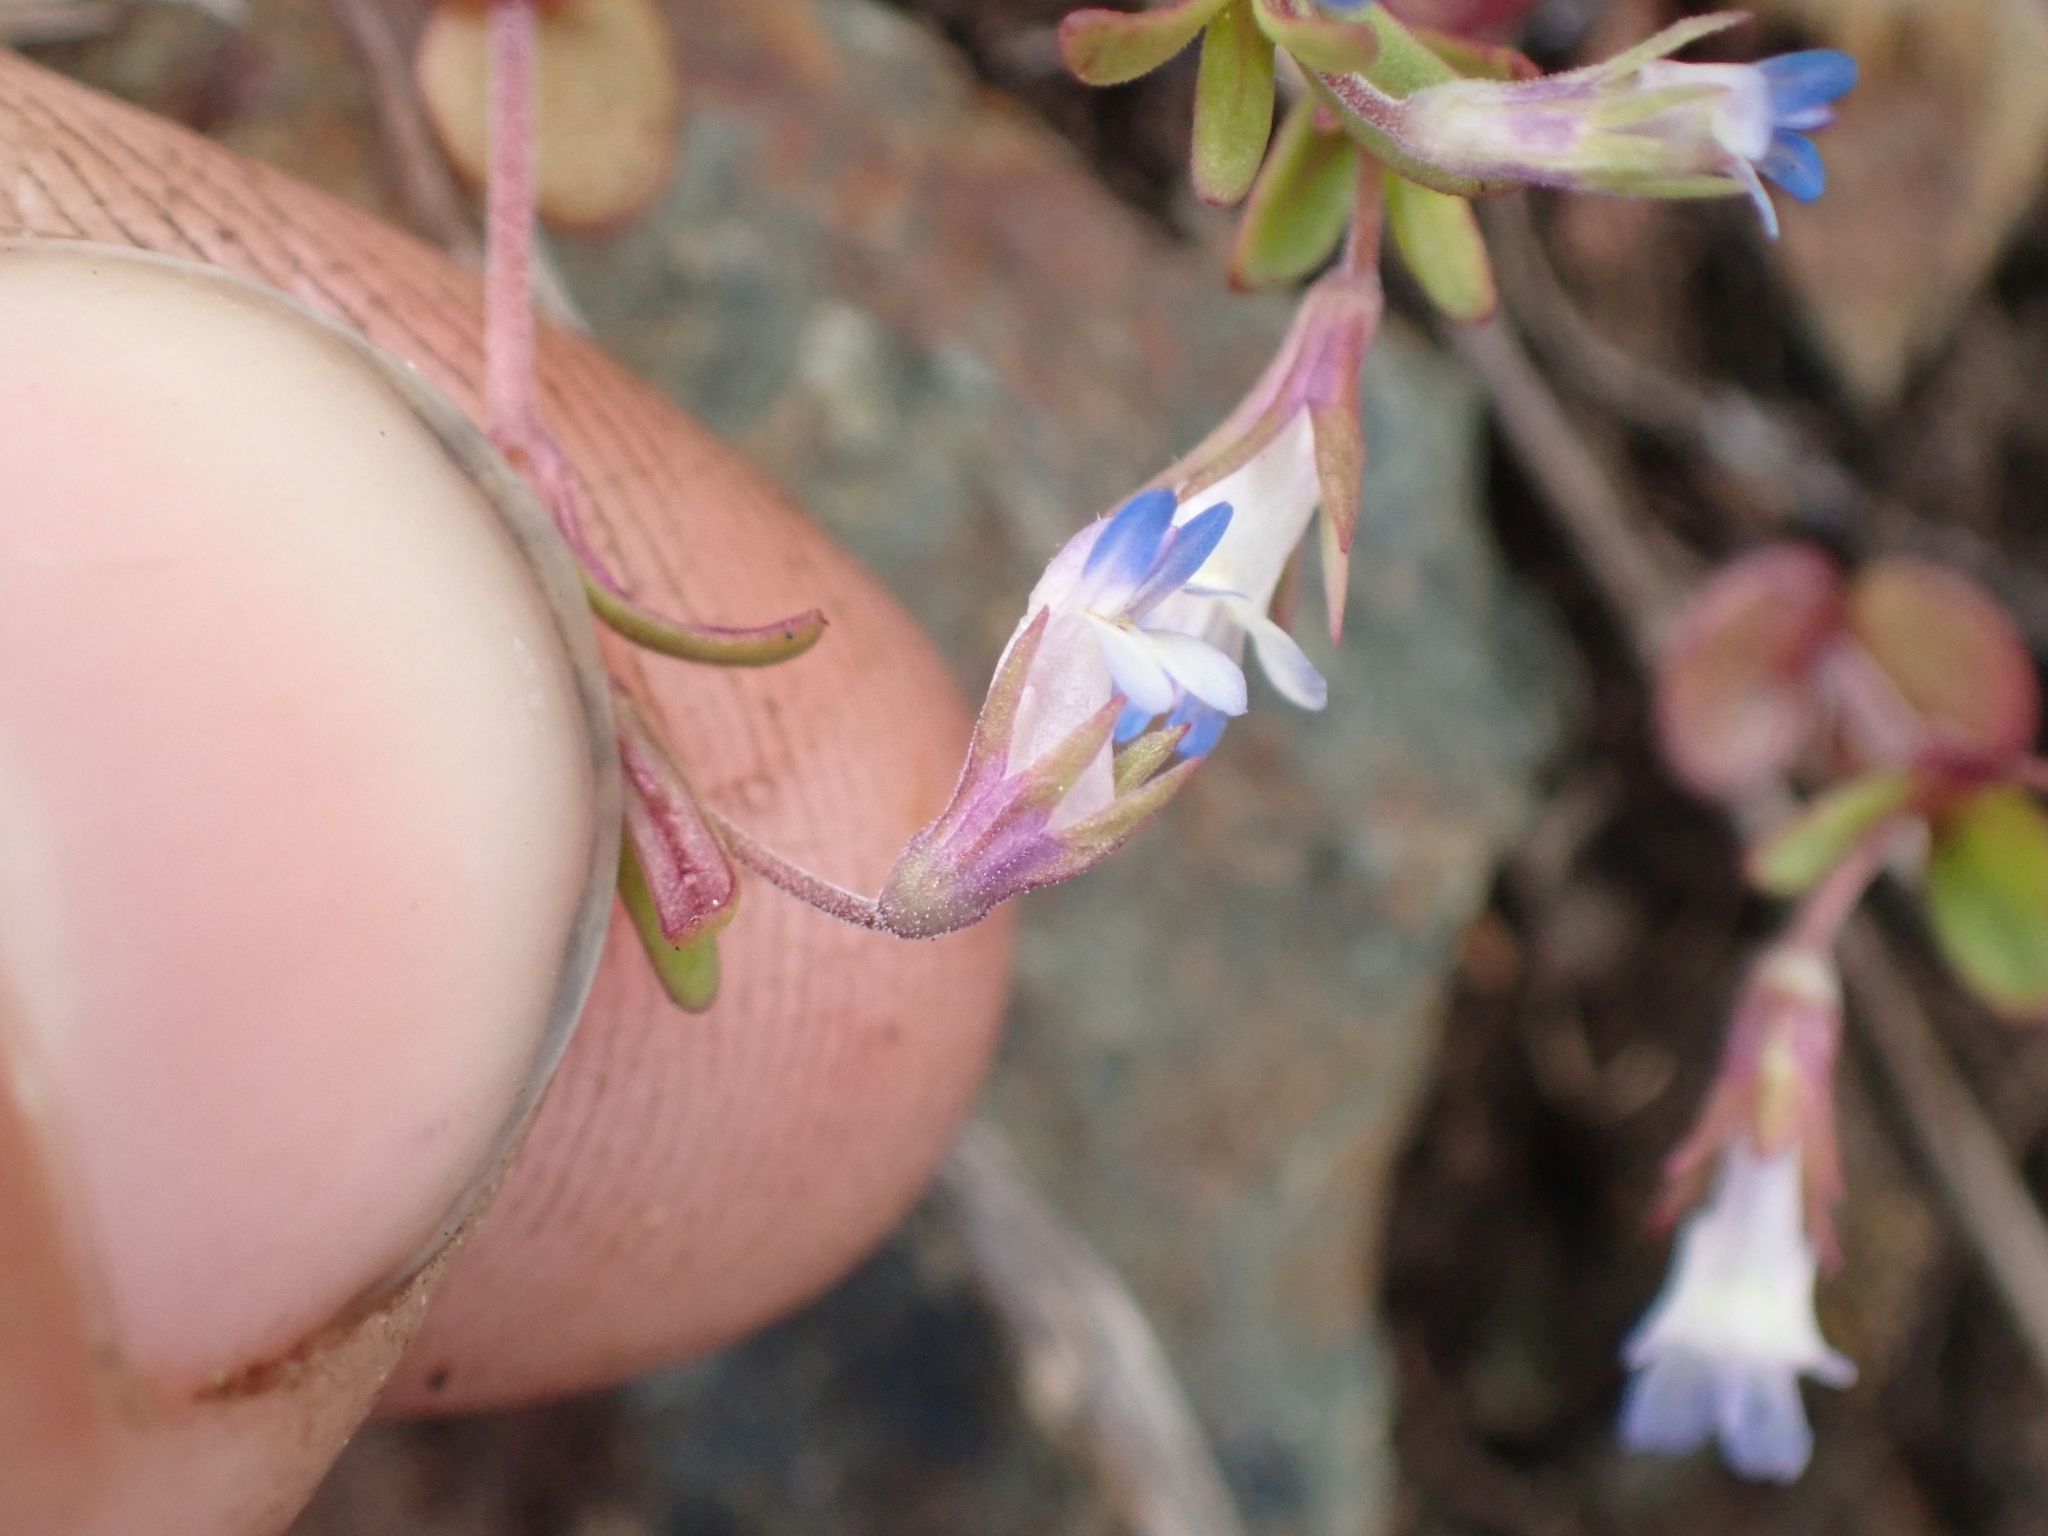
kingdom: Plantae
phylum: Tracheophyta
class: Magnoliopsida
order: Lamiales
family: Plantaginaceae
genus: Collinsia
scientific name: Collinsia parviflora
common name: Blue-lips
